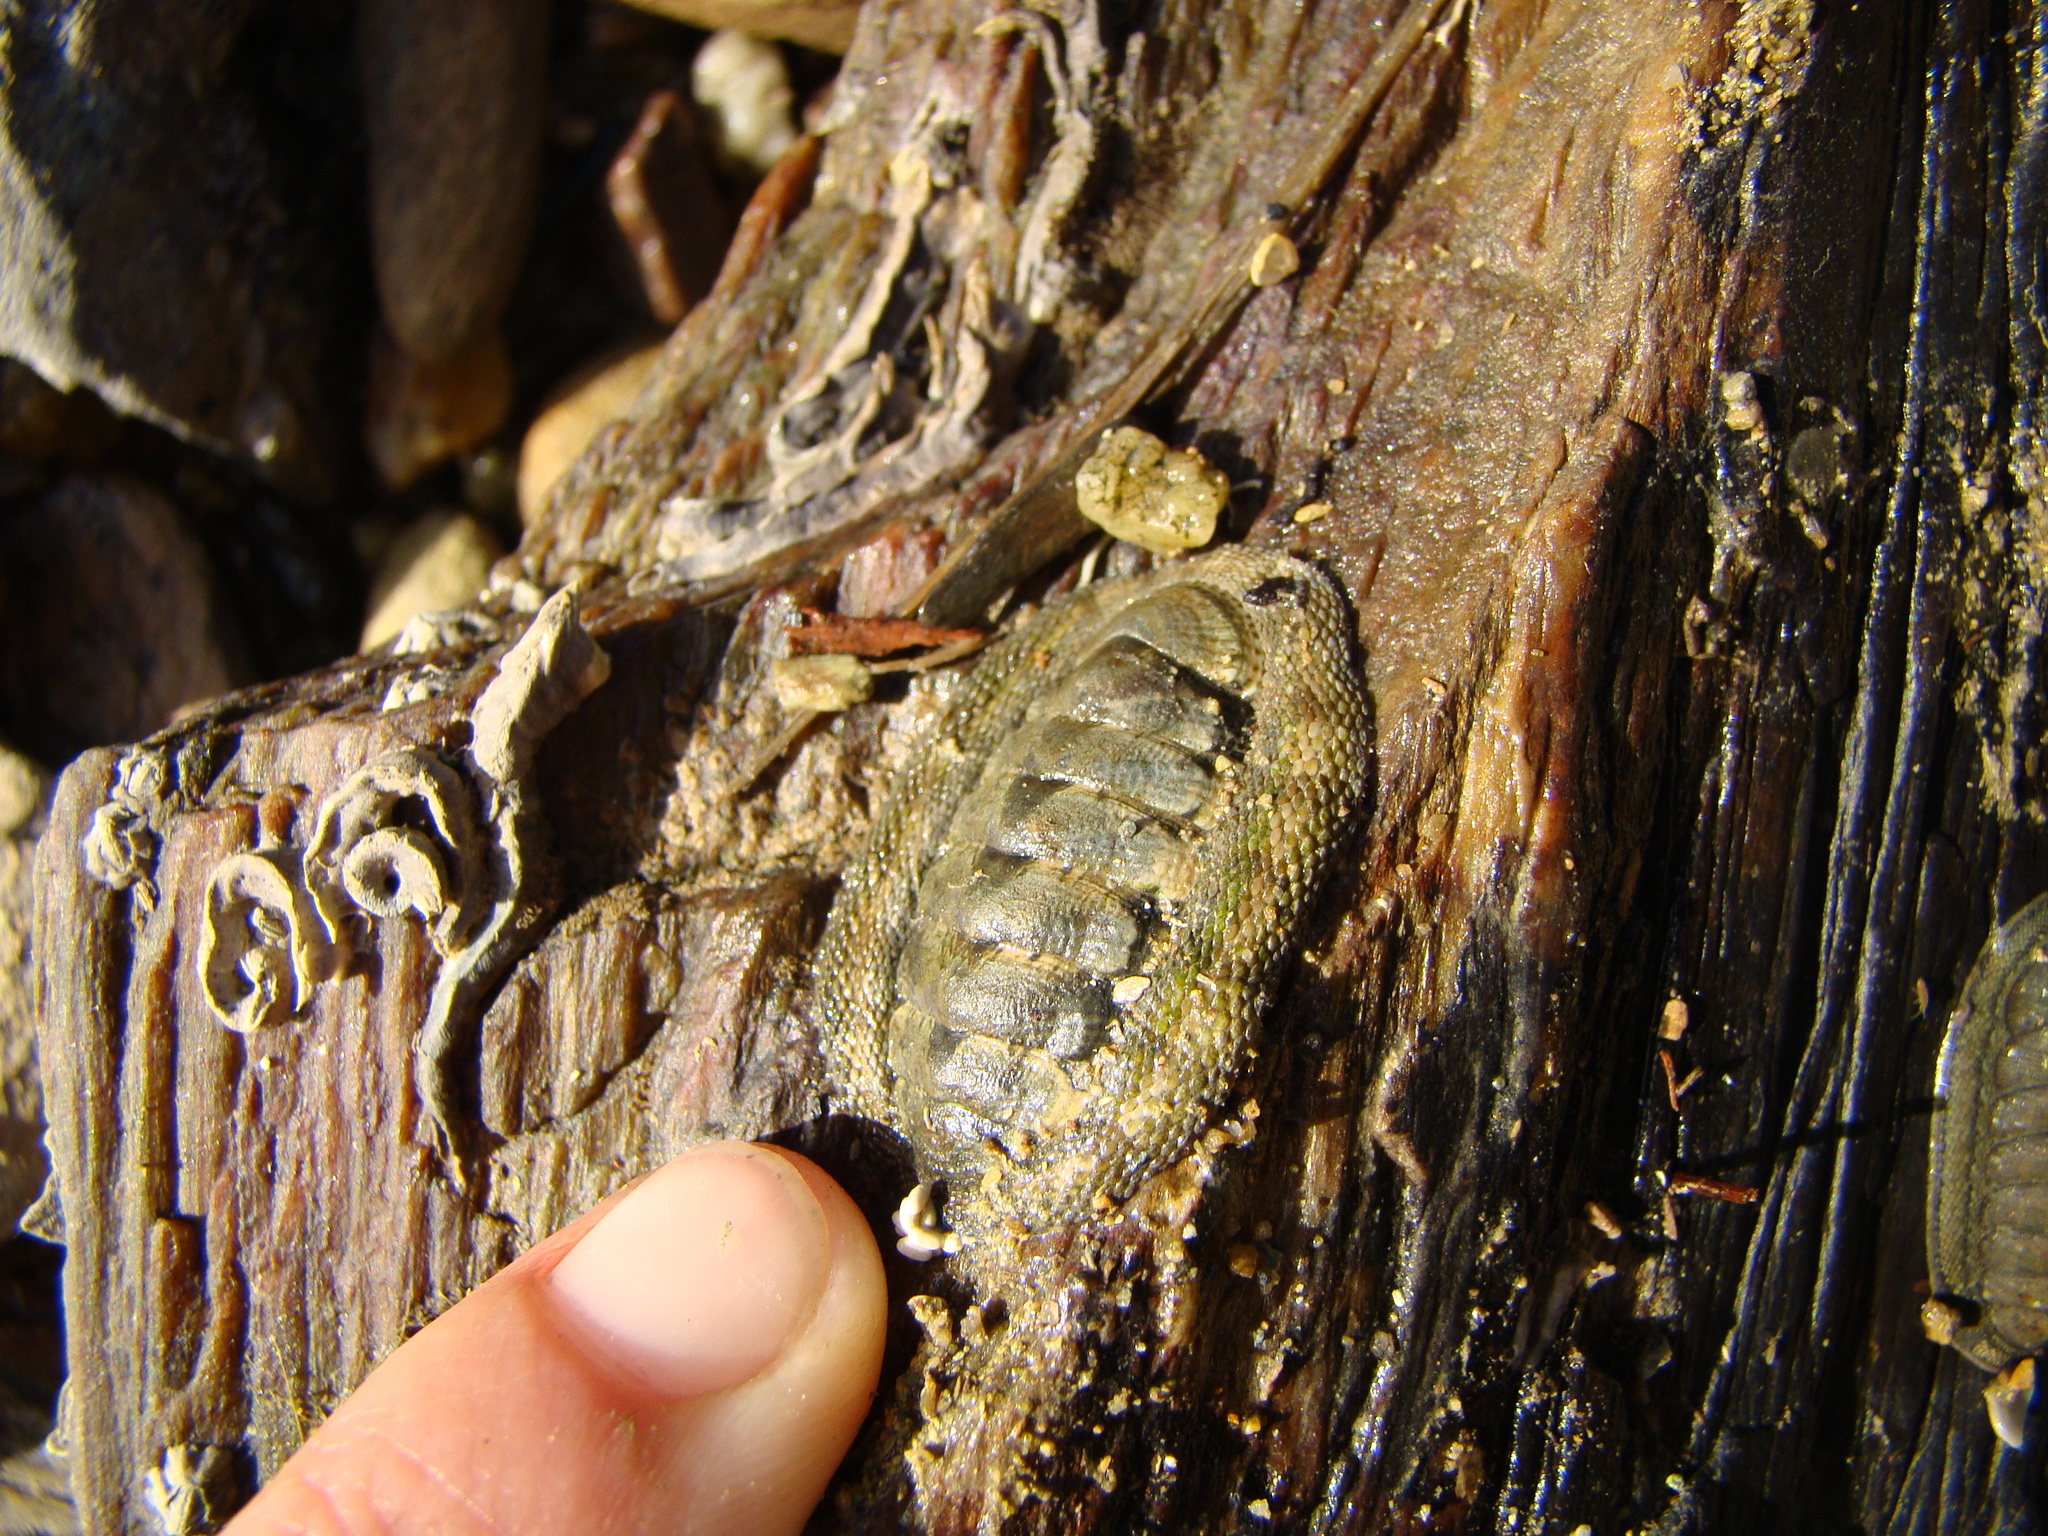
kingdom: Animalia
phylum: Mollusca
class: Polyplacophora
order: Chitonida
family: Chitonidae
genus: Sypharochiton
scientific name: Sypharochiton pelliserpentis
